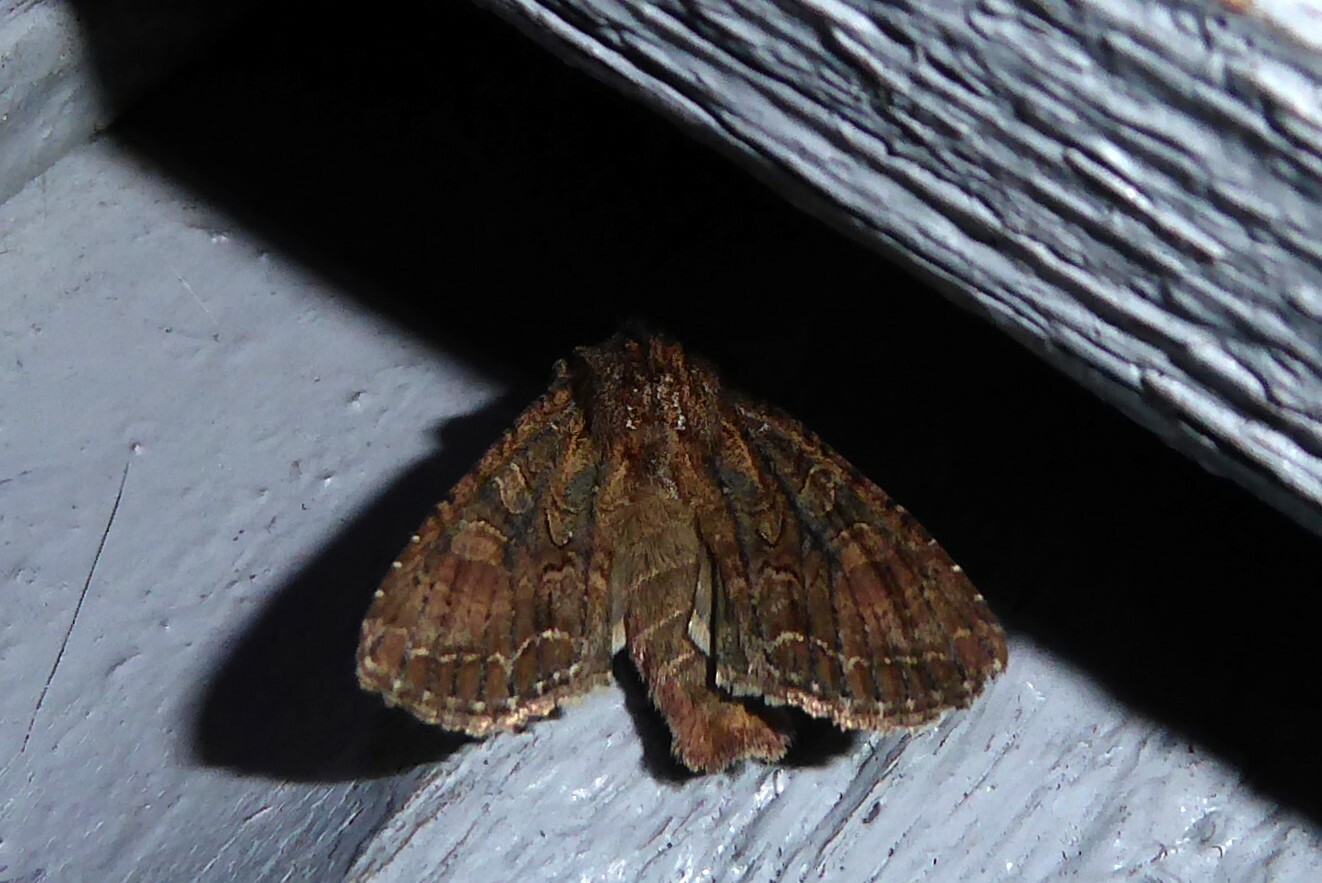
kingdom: Animalia
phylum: Arthropoda
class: Insecta
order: Lepidoptera
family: Noctuidae
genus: Ichneutica
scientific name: Ichneutica mutans
